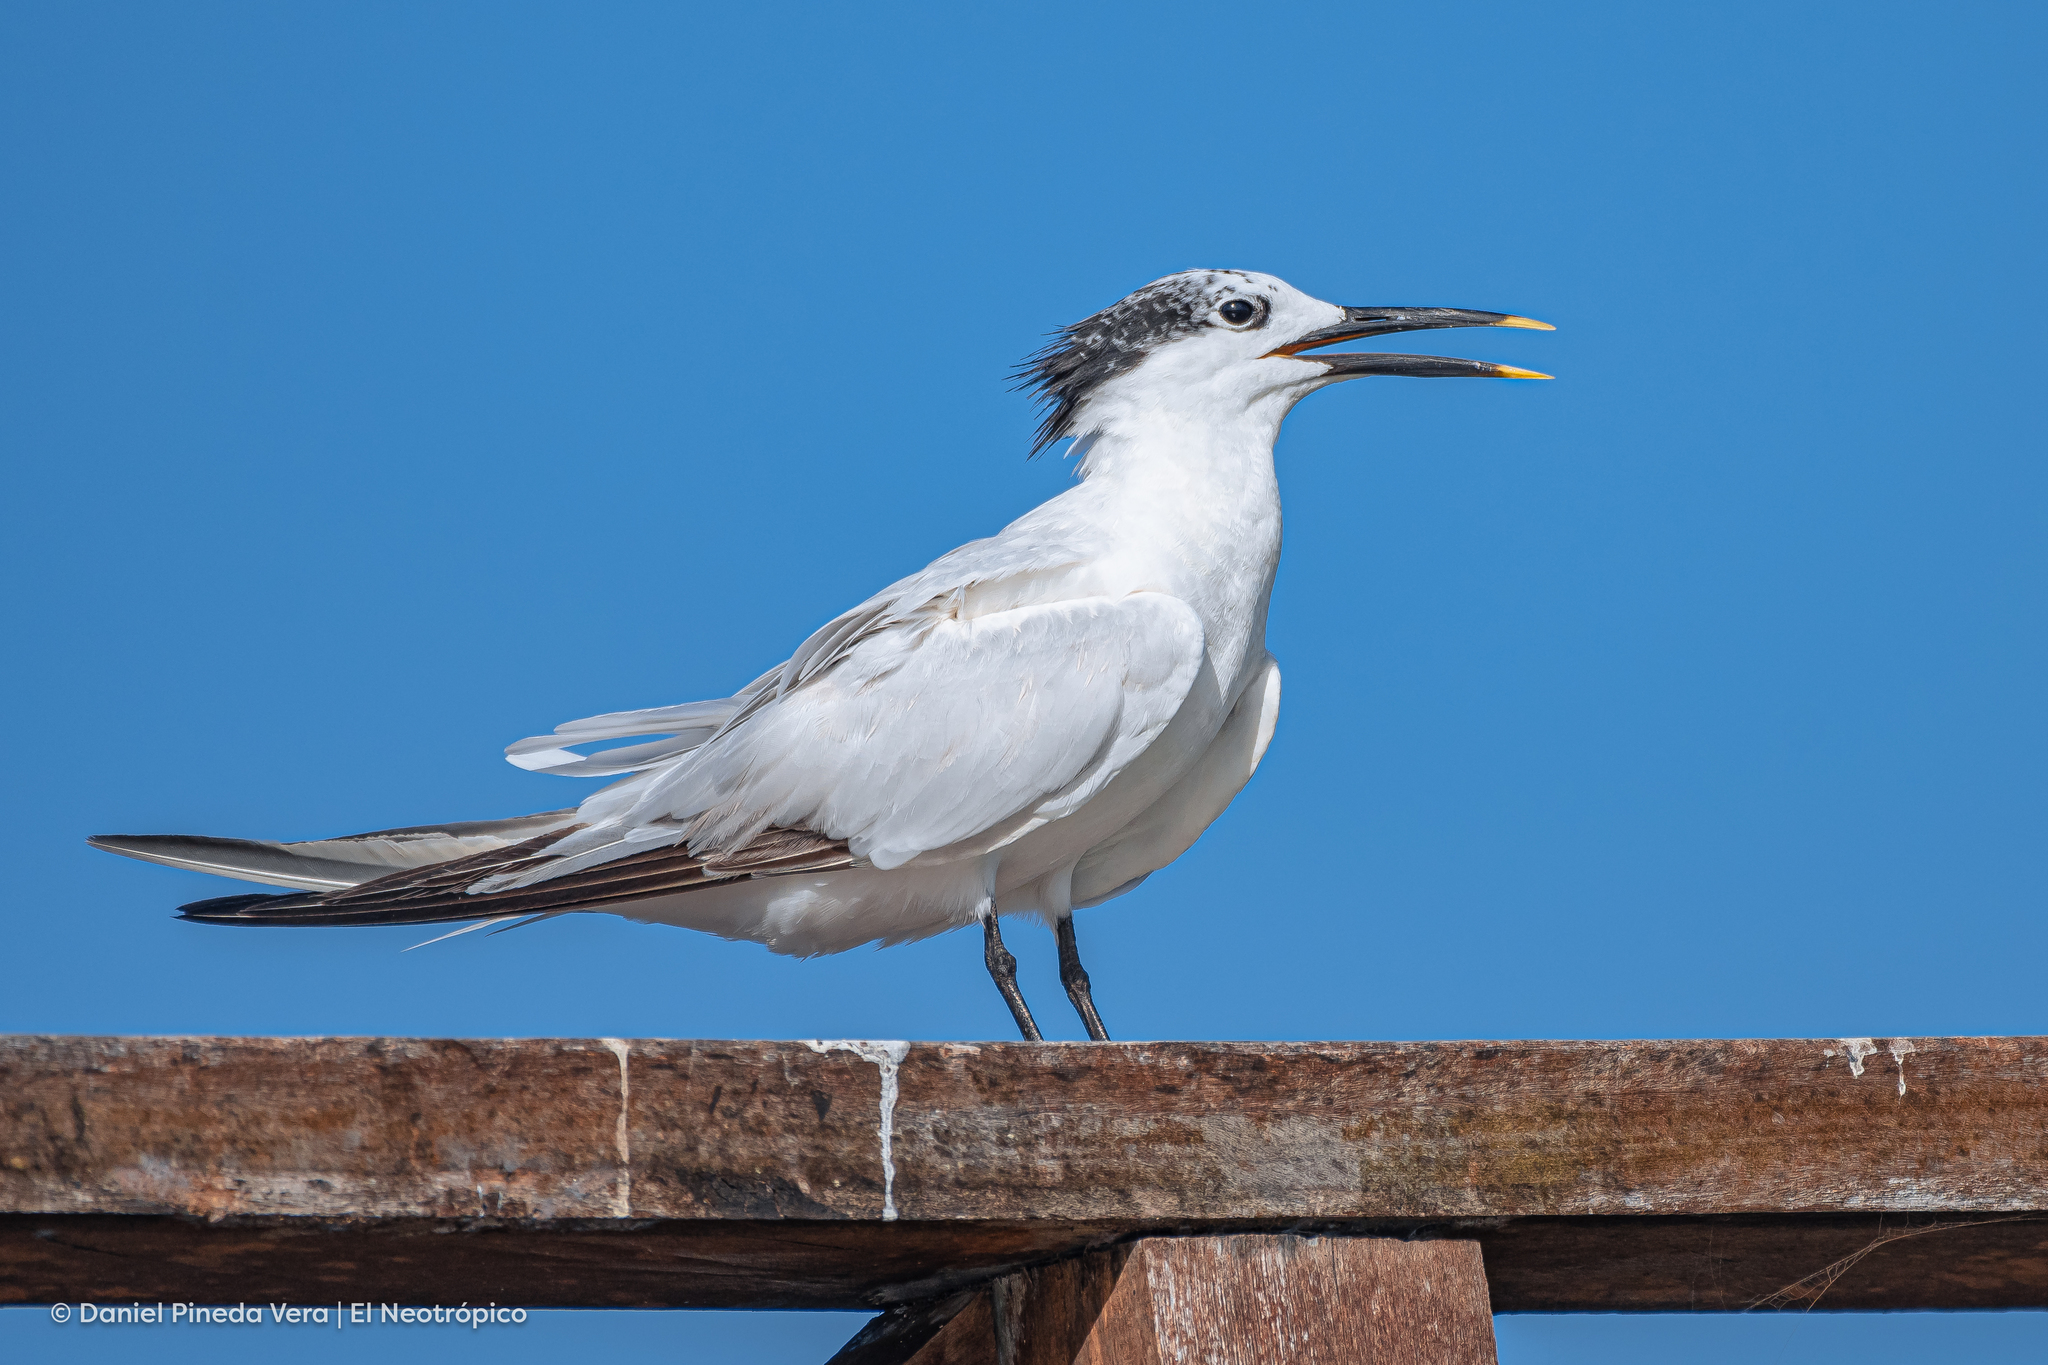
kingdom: Animalia
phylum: Chordata
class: Aves
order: Charadriiformes
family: Laridae
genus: Thalasseus
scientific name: Thalasseus sandvicensis
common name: Sandwich tern
